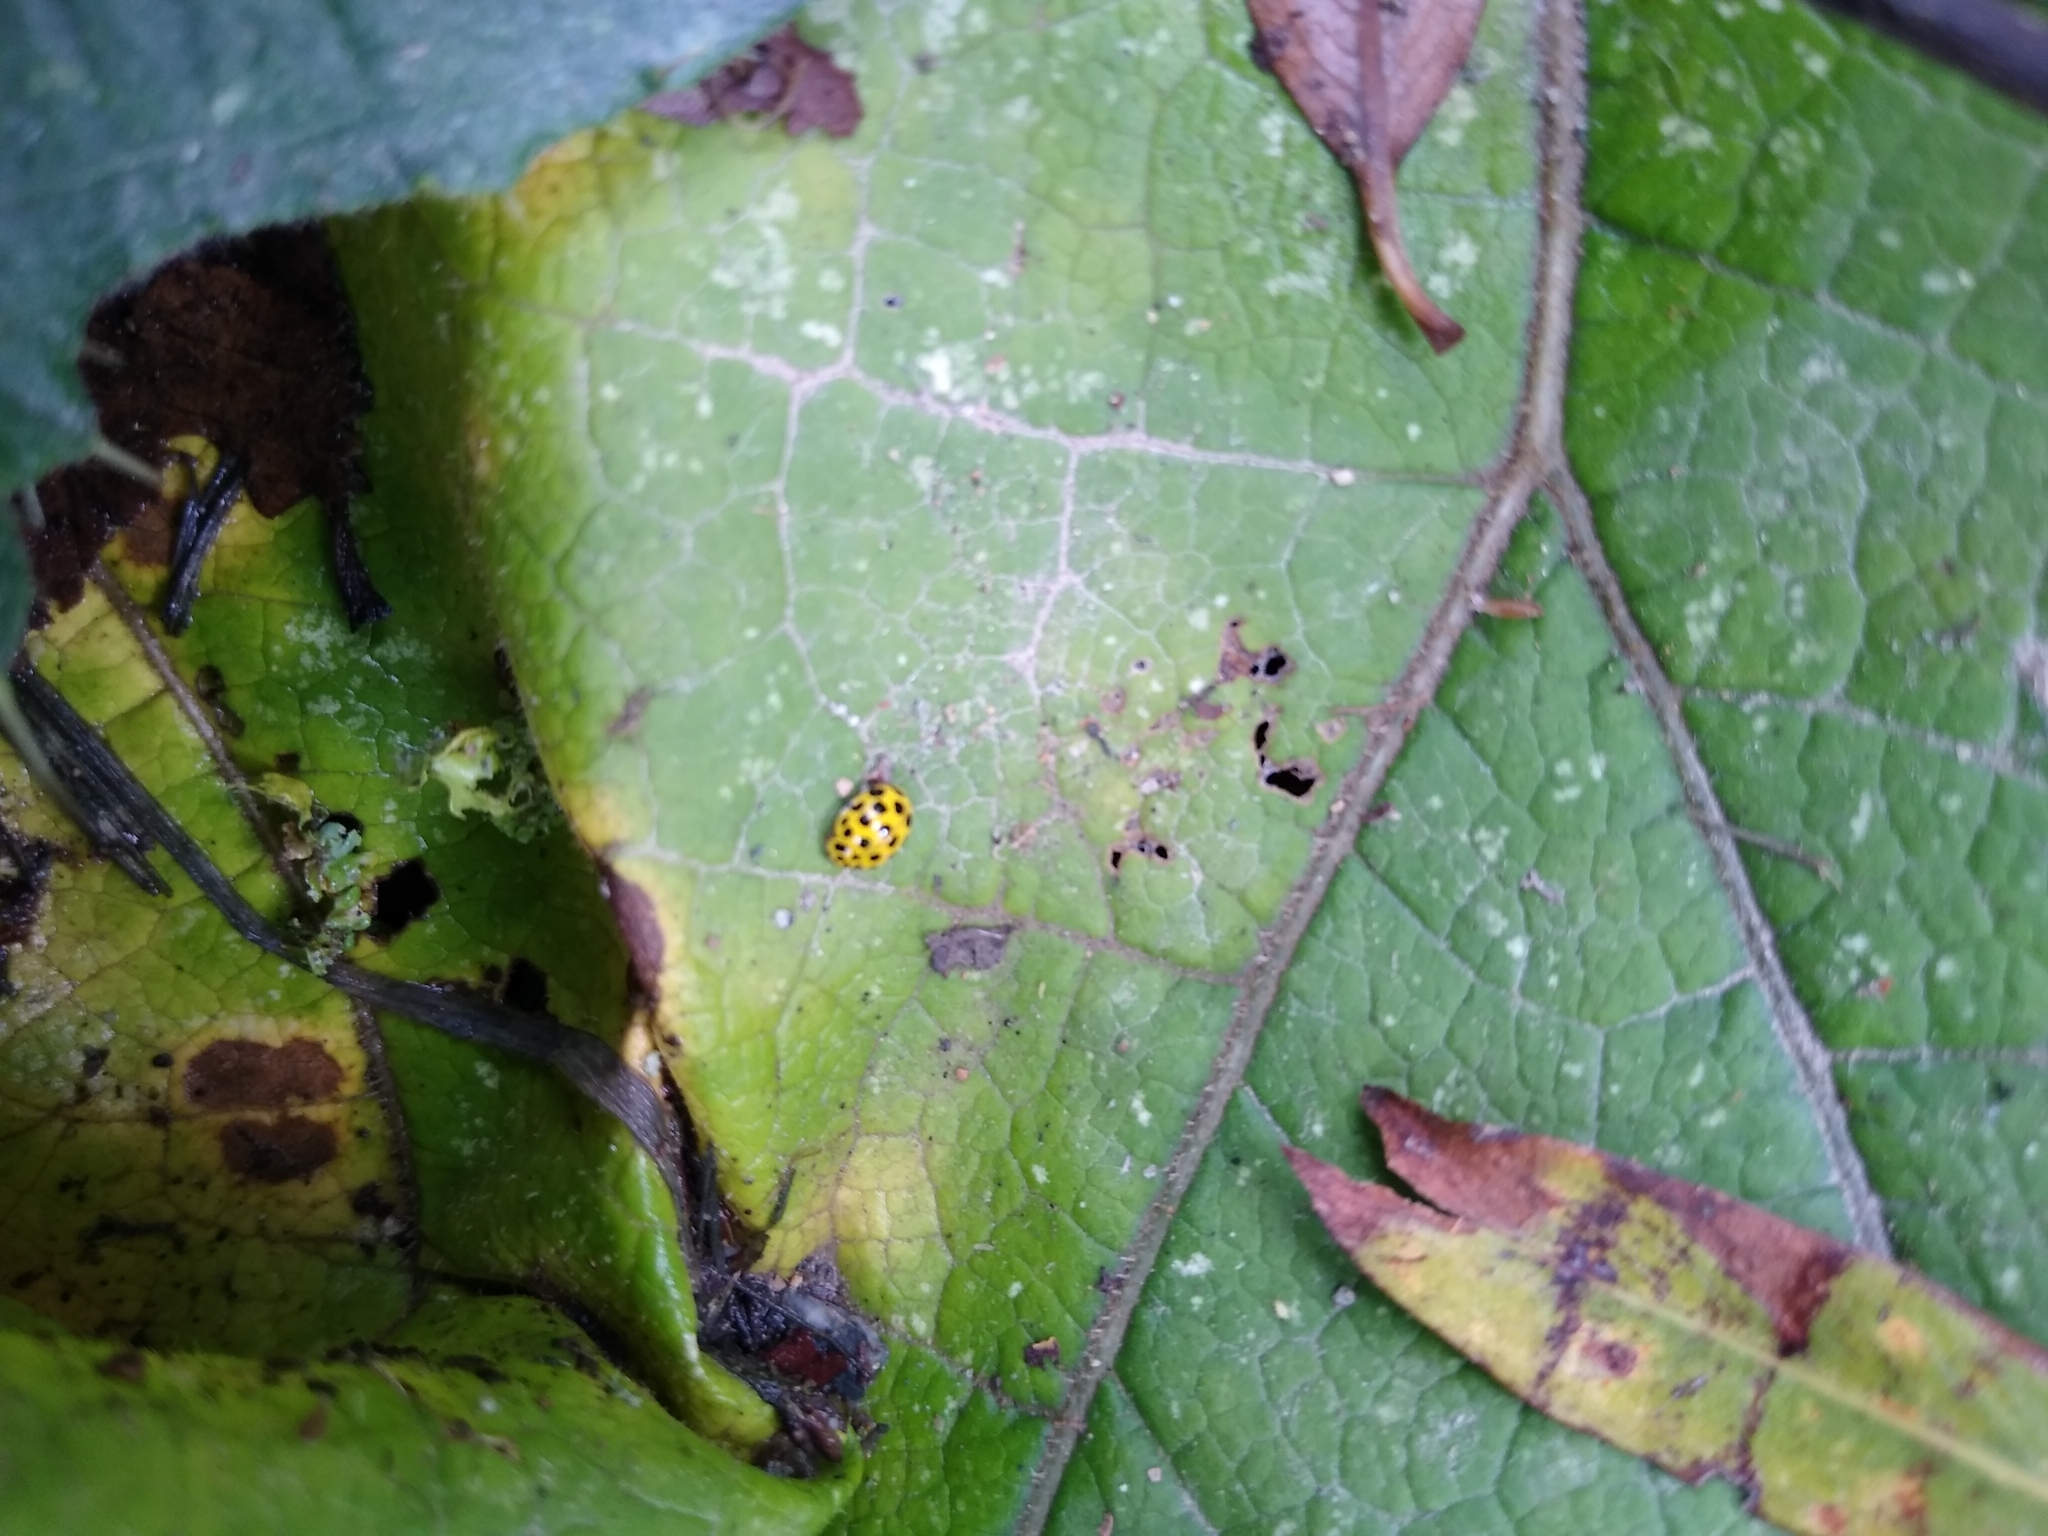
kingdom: Animalia
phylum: Arthropoda
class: Insecta
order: Coleoptera
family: Coccinellidae
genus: Psyllobora
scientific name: Psyllobora vigintiduopunctata
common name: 22-spot ladybird
